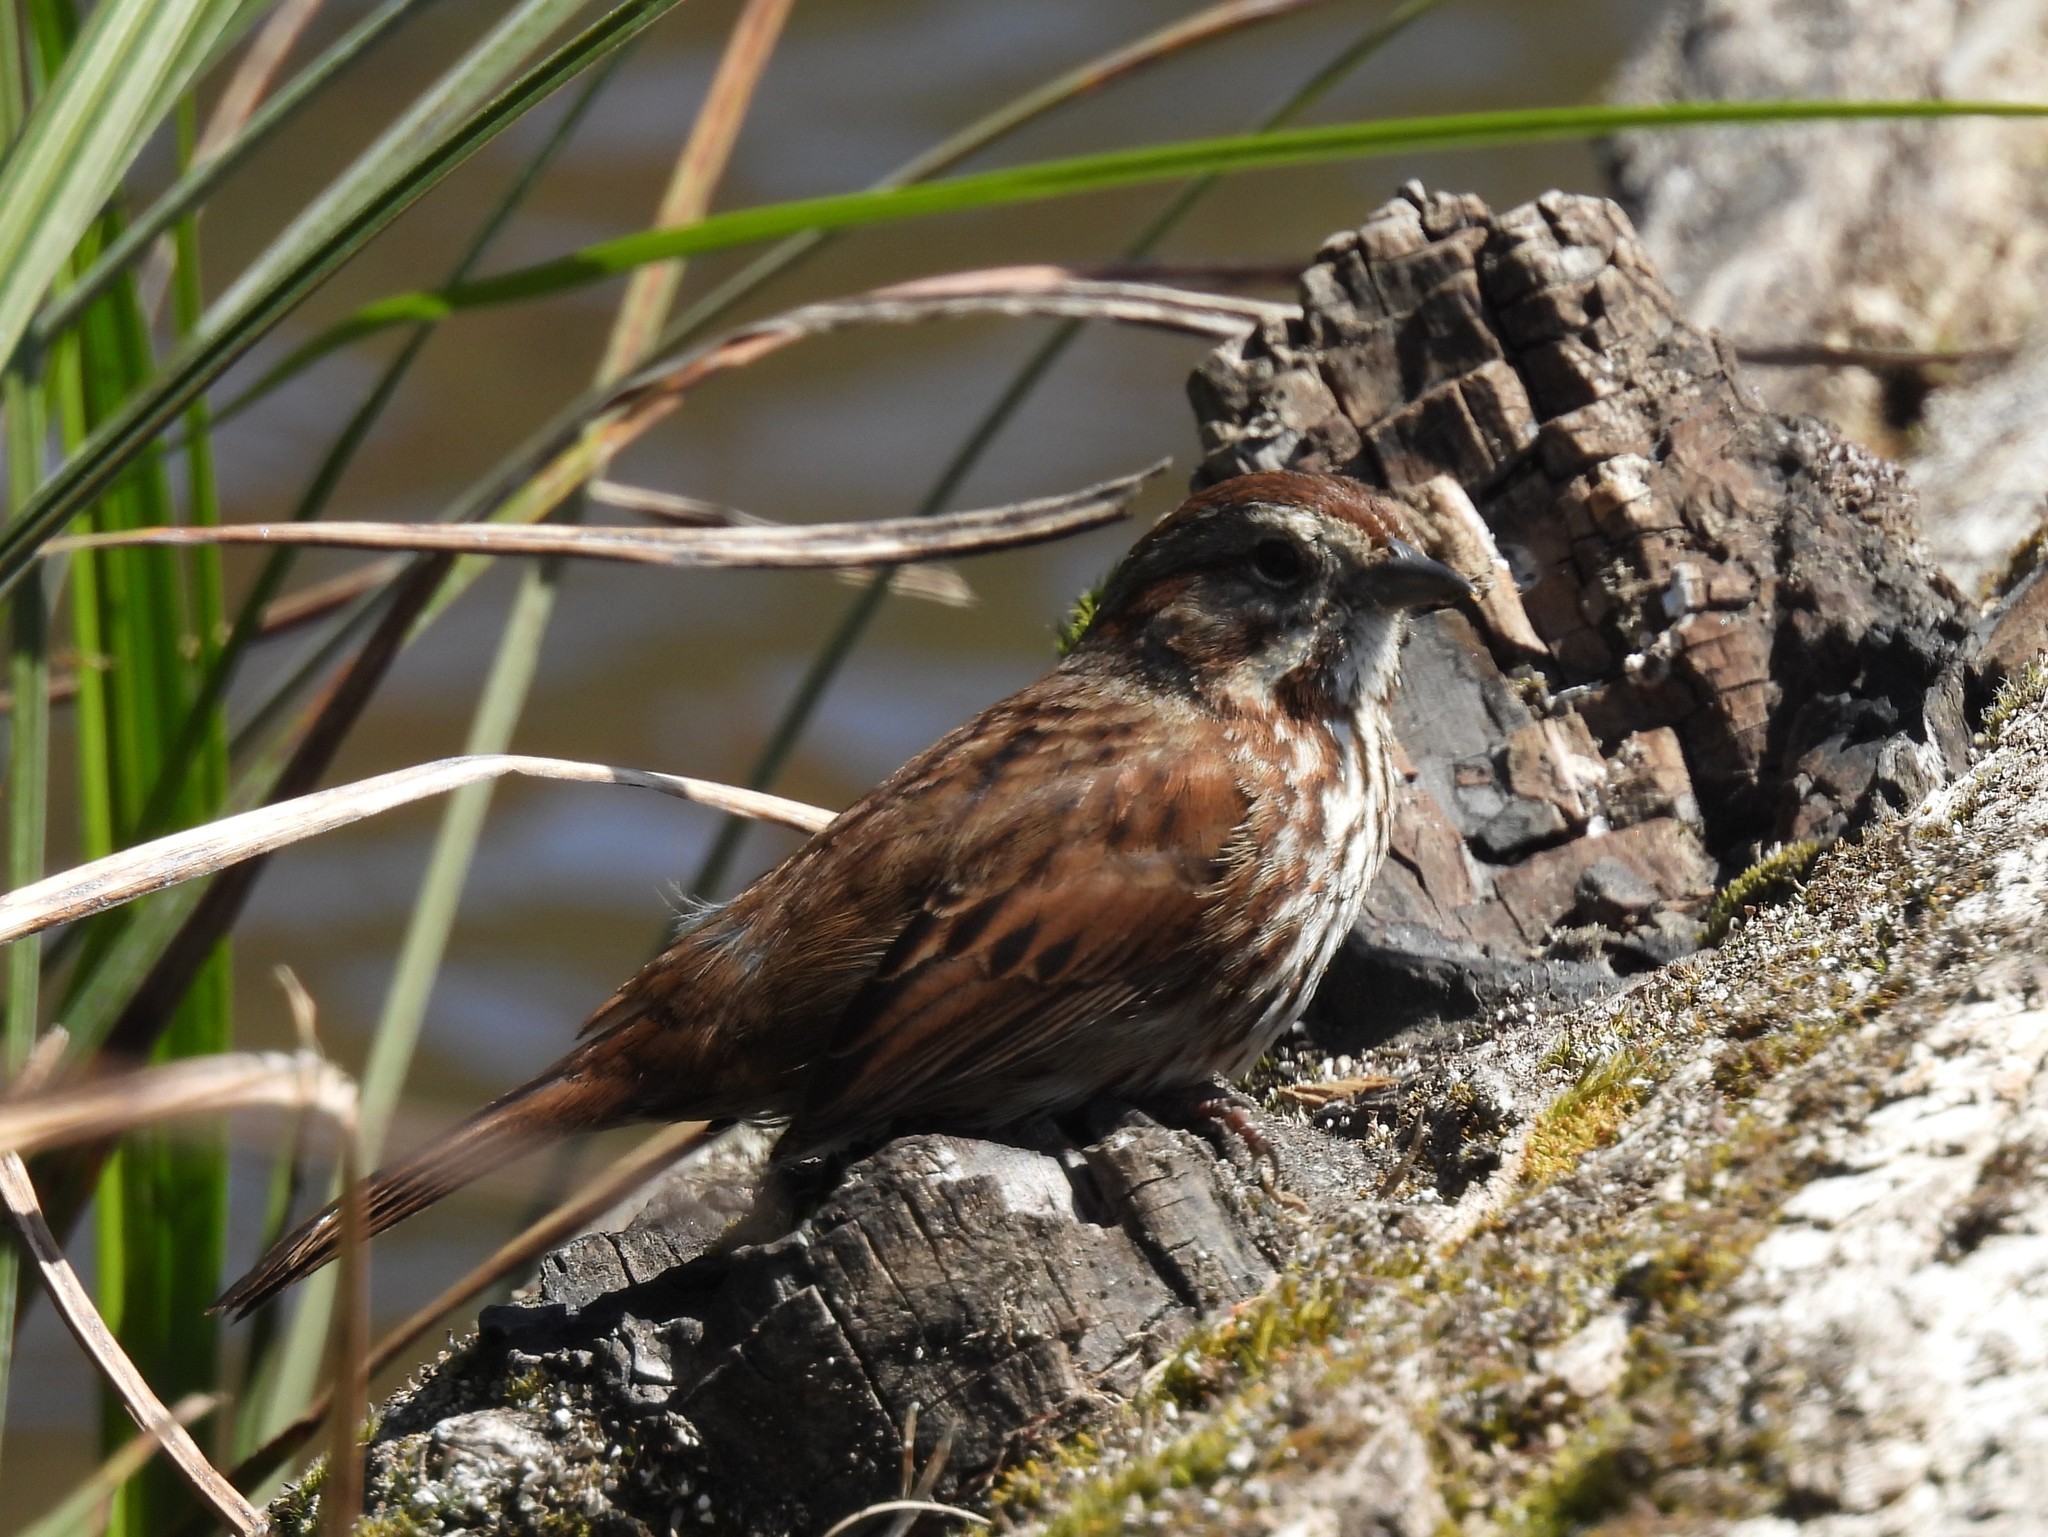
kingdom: Animalia
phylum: Chordata
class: Aves
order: Passeriformes
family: Passerellidae
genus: Melospiza
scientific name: Melospiza melodia
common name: Song sparrow
